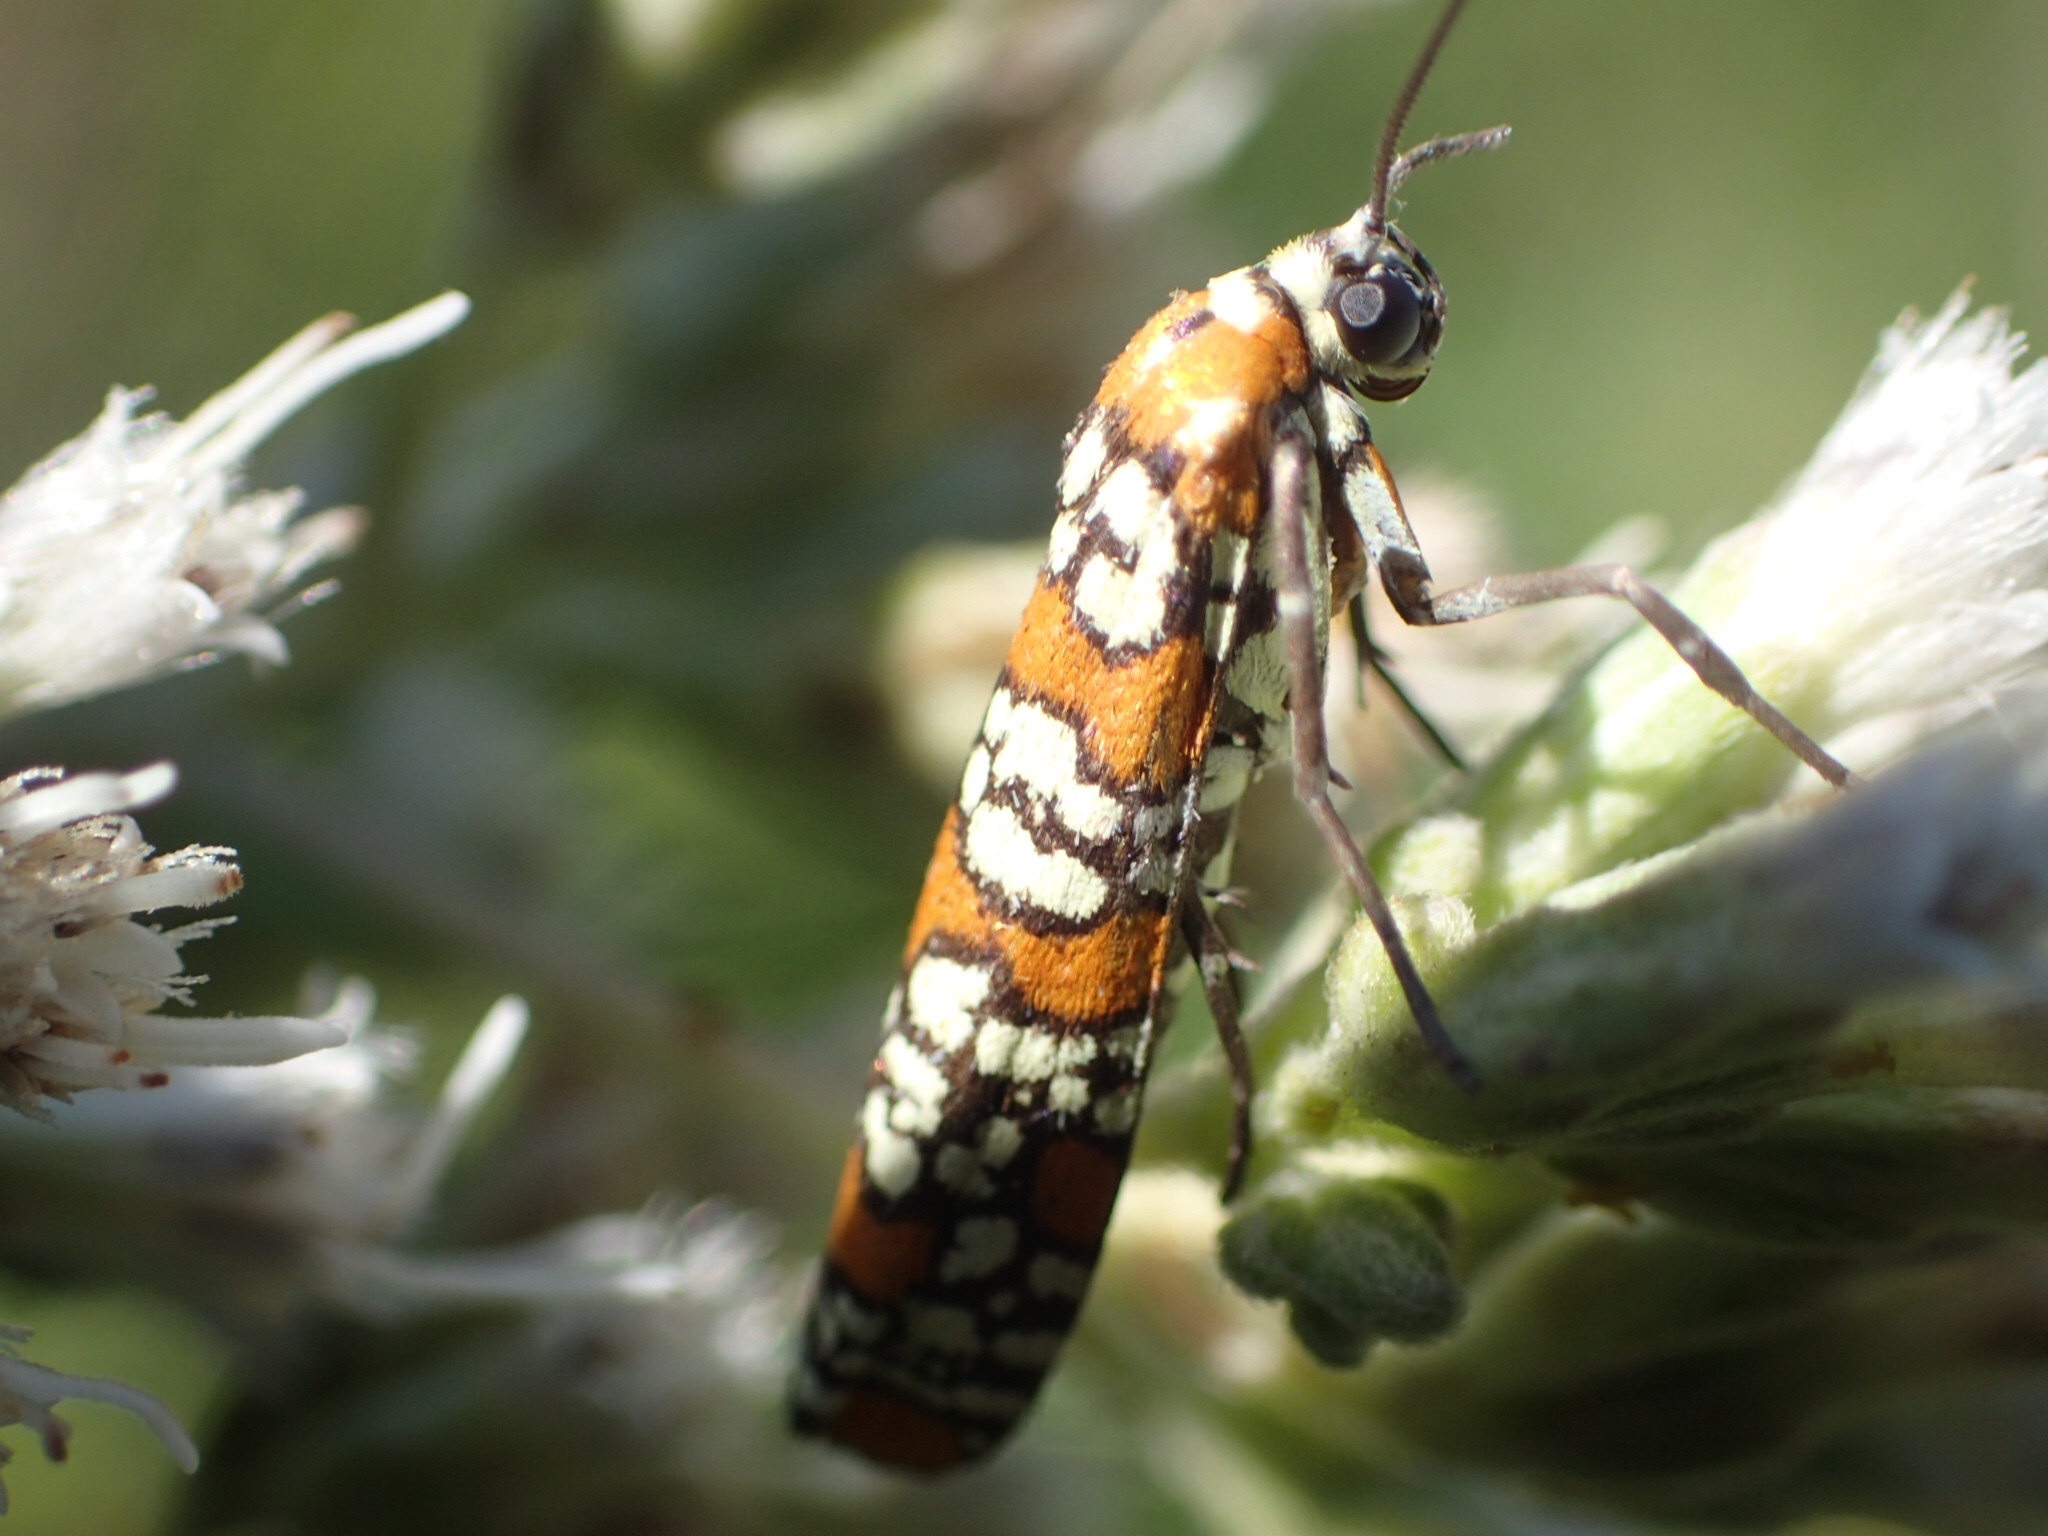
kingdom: Animalia
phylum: Arthropoda
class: Insecta
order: Lepidoptera
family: Attevidae
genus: Atteva
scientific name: Atteva punctella
